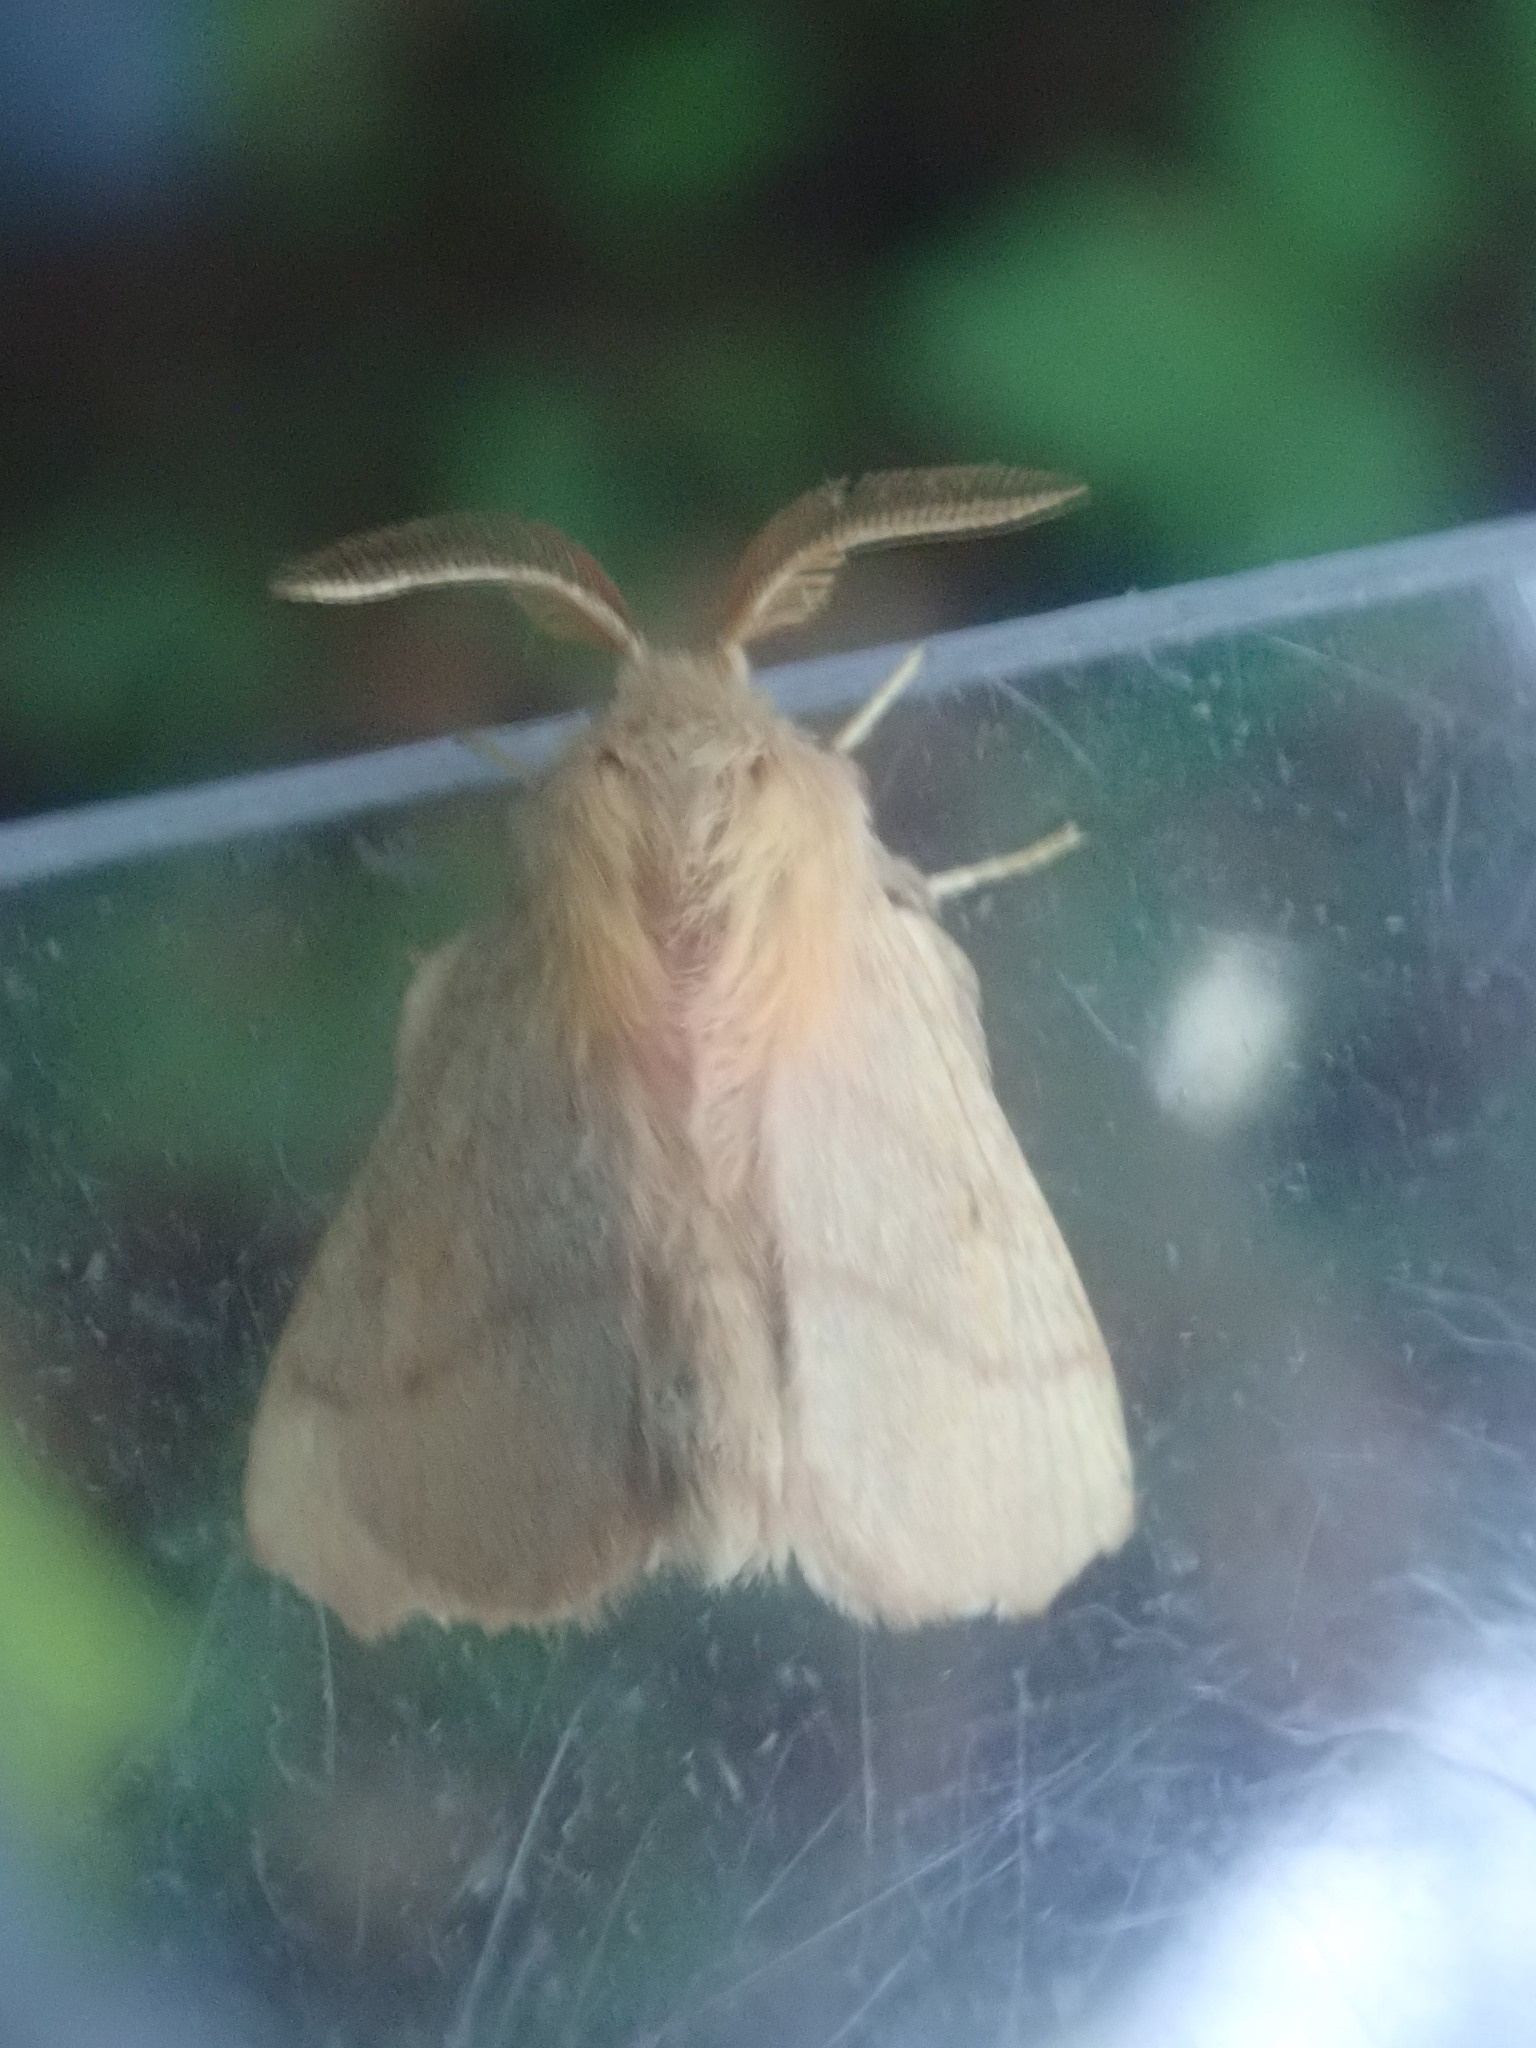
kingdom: Animalia
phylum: Arthropoda
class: Insecta
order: Lepidoptera
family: Lasiocampidae
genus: Malacosoma
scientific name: Malacosoma disstria
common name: Forest tent caterpillar
